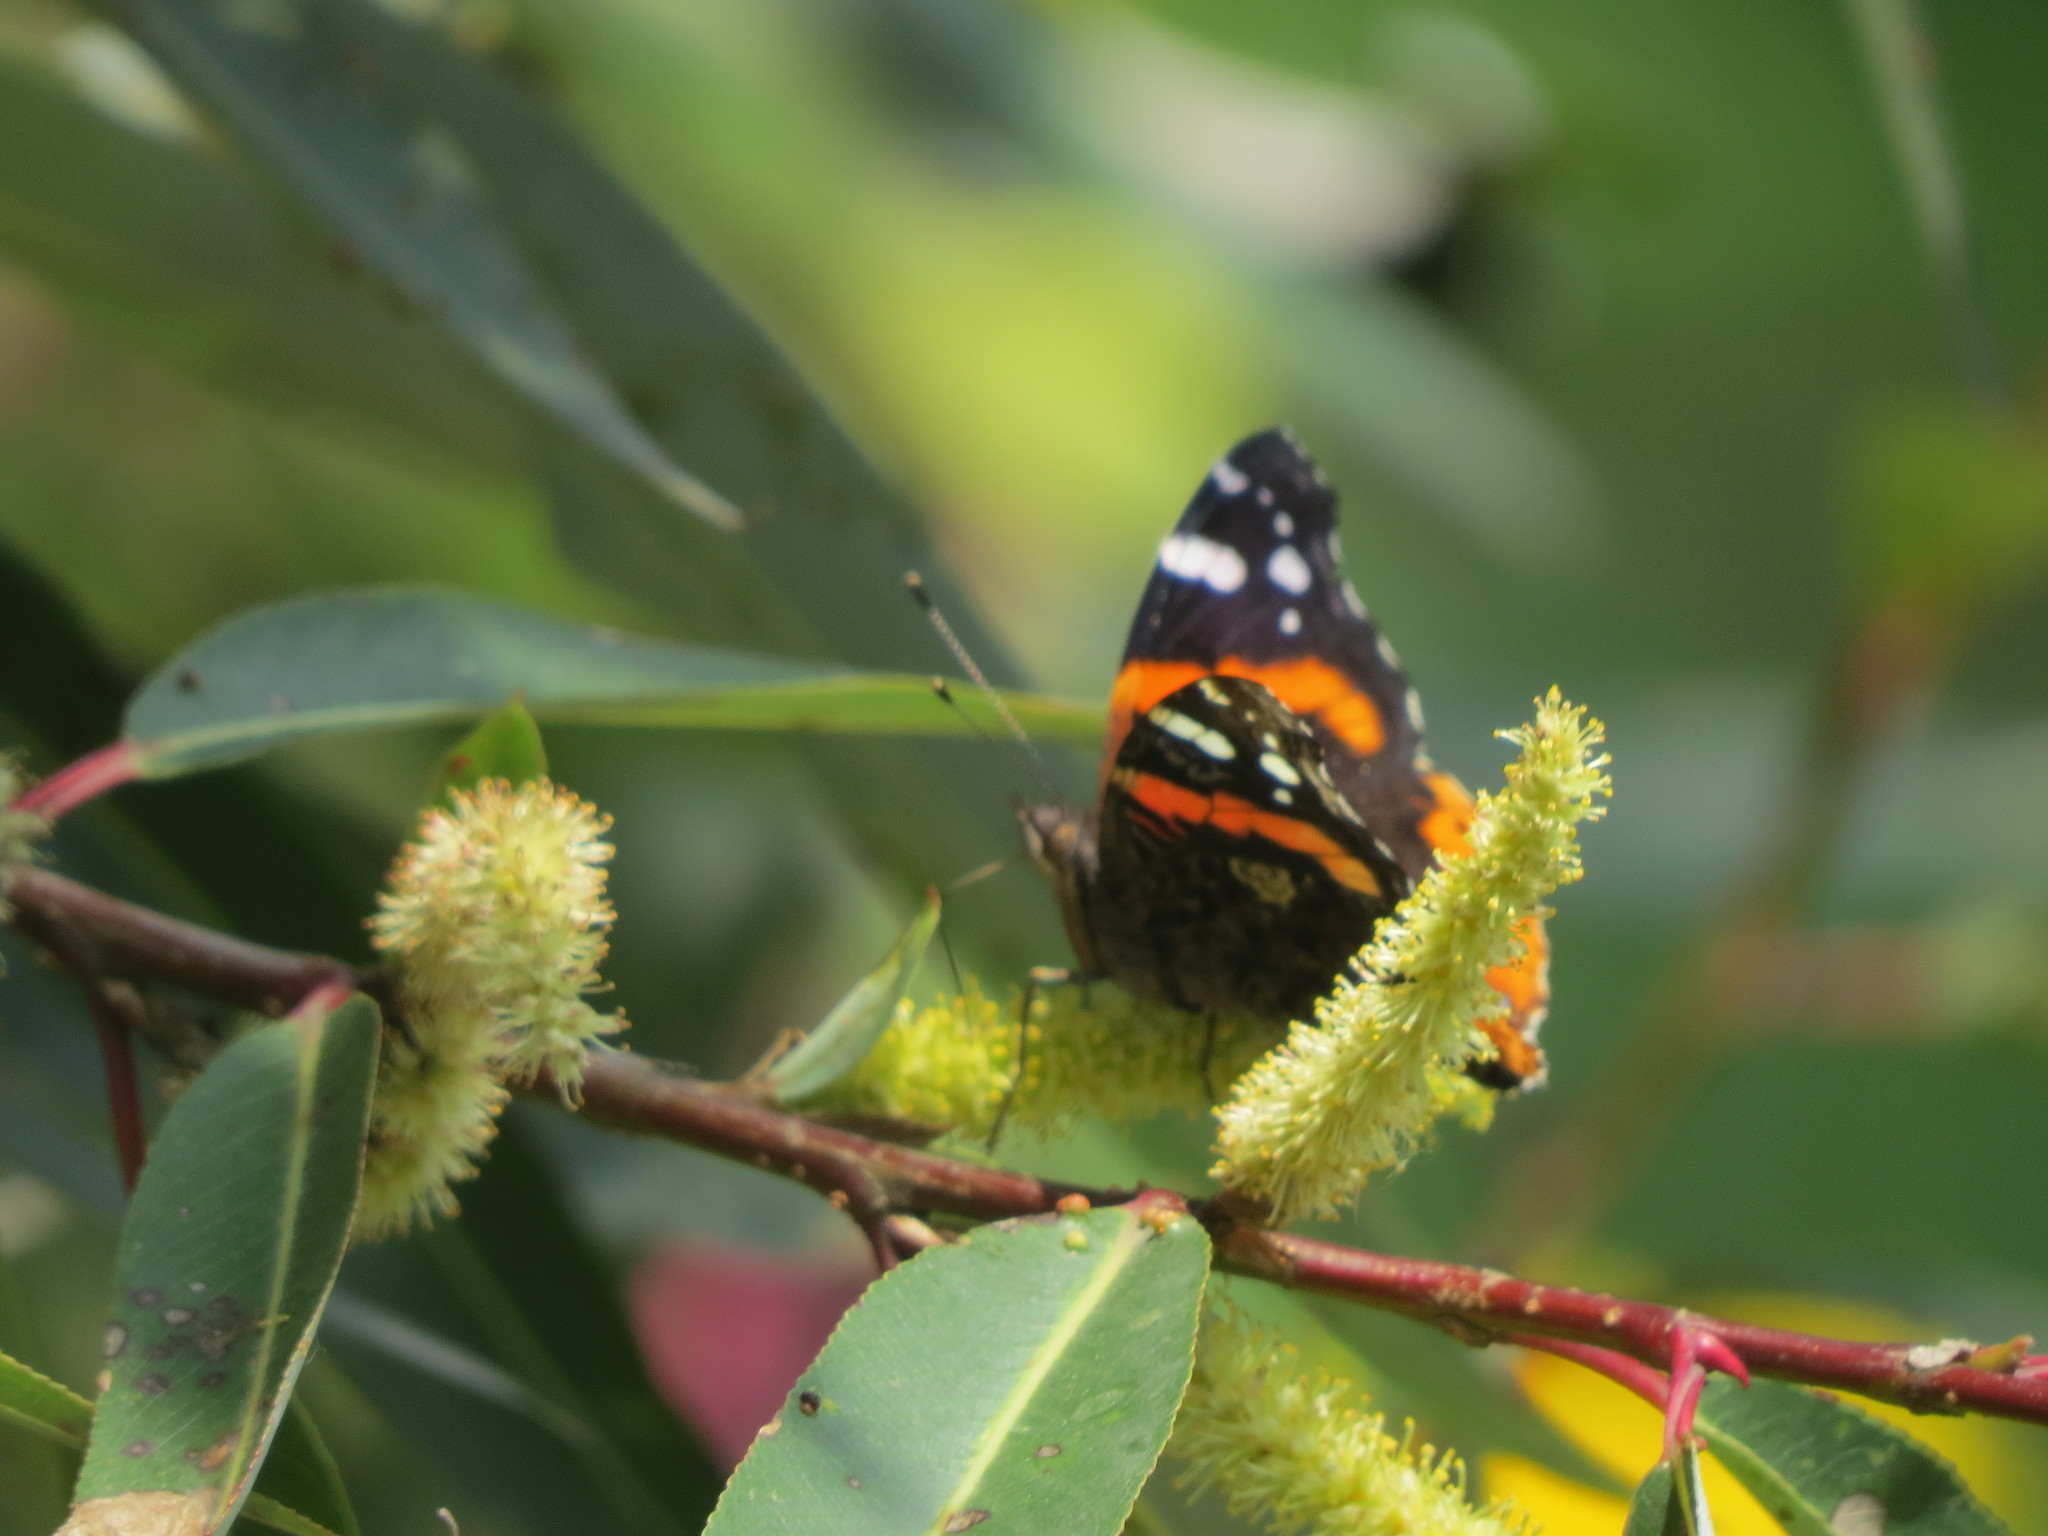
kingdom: Animalia
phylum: Arthropoda
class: Insecta
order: Lepidoptera
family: Nymphalidae
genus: Vanessa
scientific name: Vanessa atalanta
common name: Red admiral
